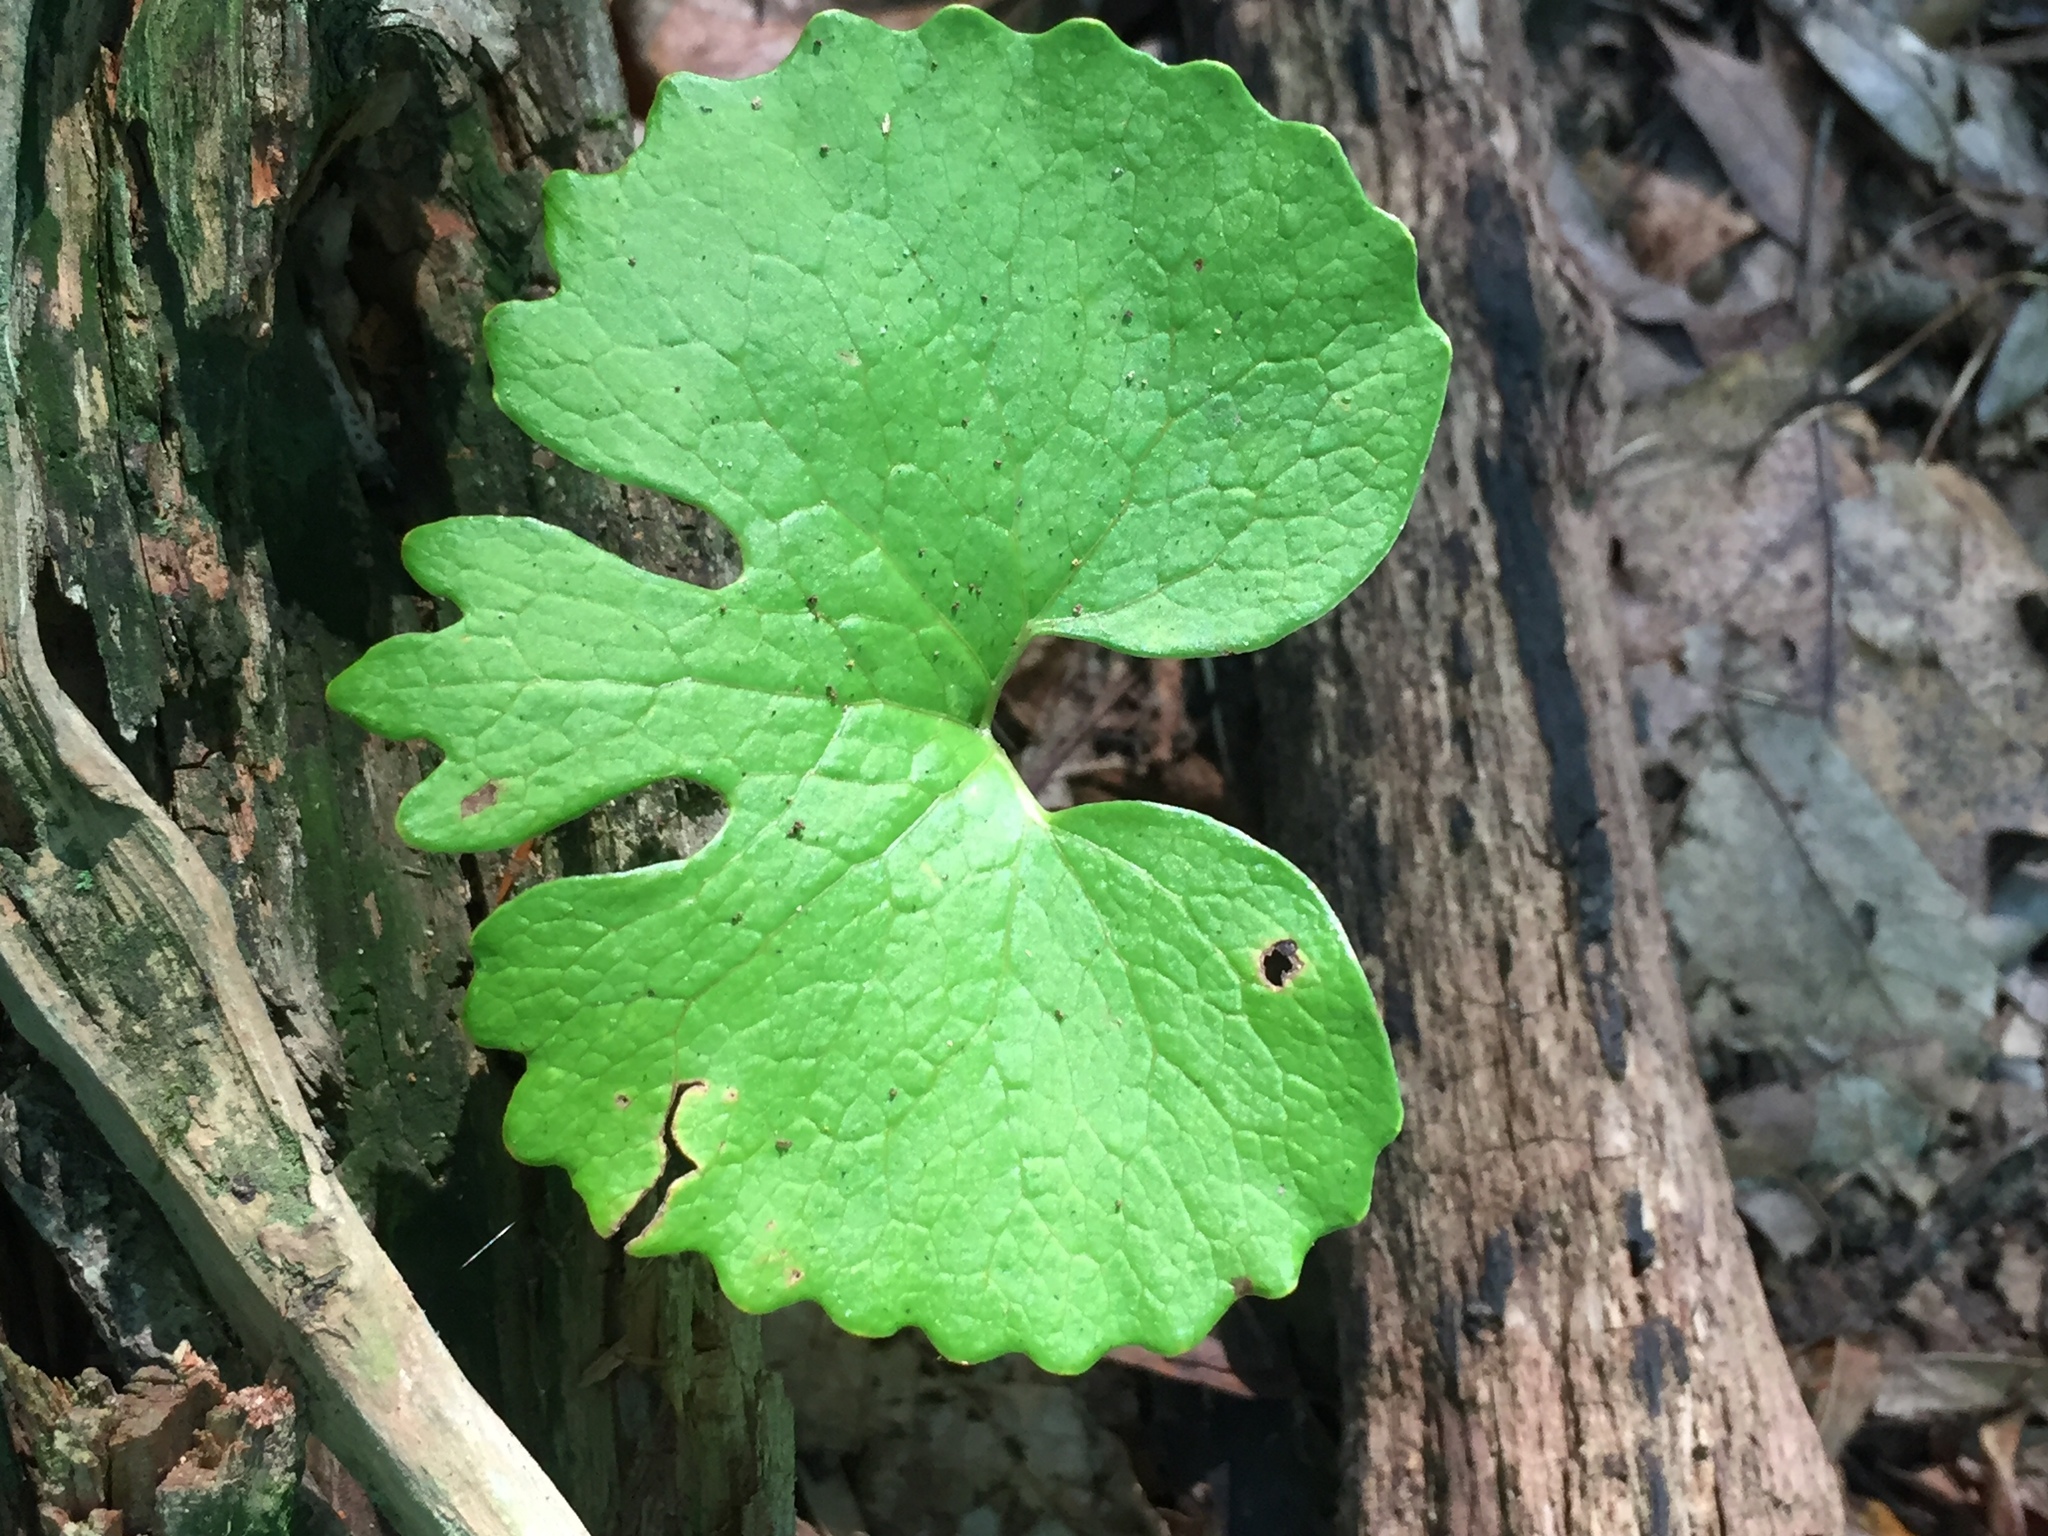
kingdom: Plantae
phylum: Tracheophyta
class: Magnoliopsida
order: Ranunculales
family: Papaveraceae
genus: Sanguinaria
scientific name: Sanguinaria canadensis
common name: Bloodroot
